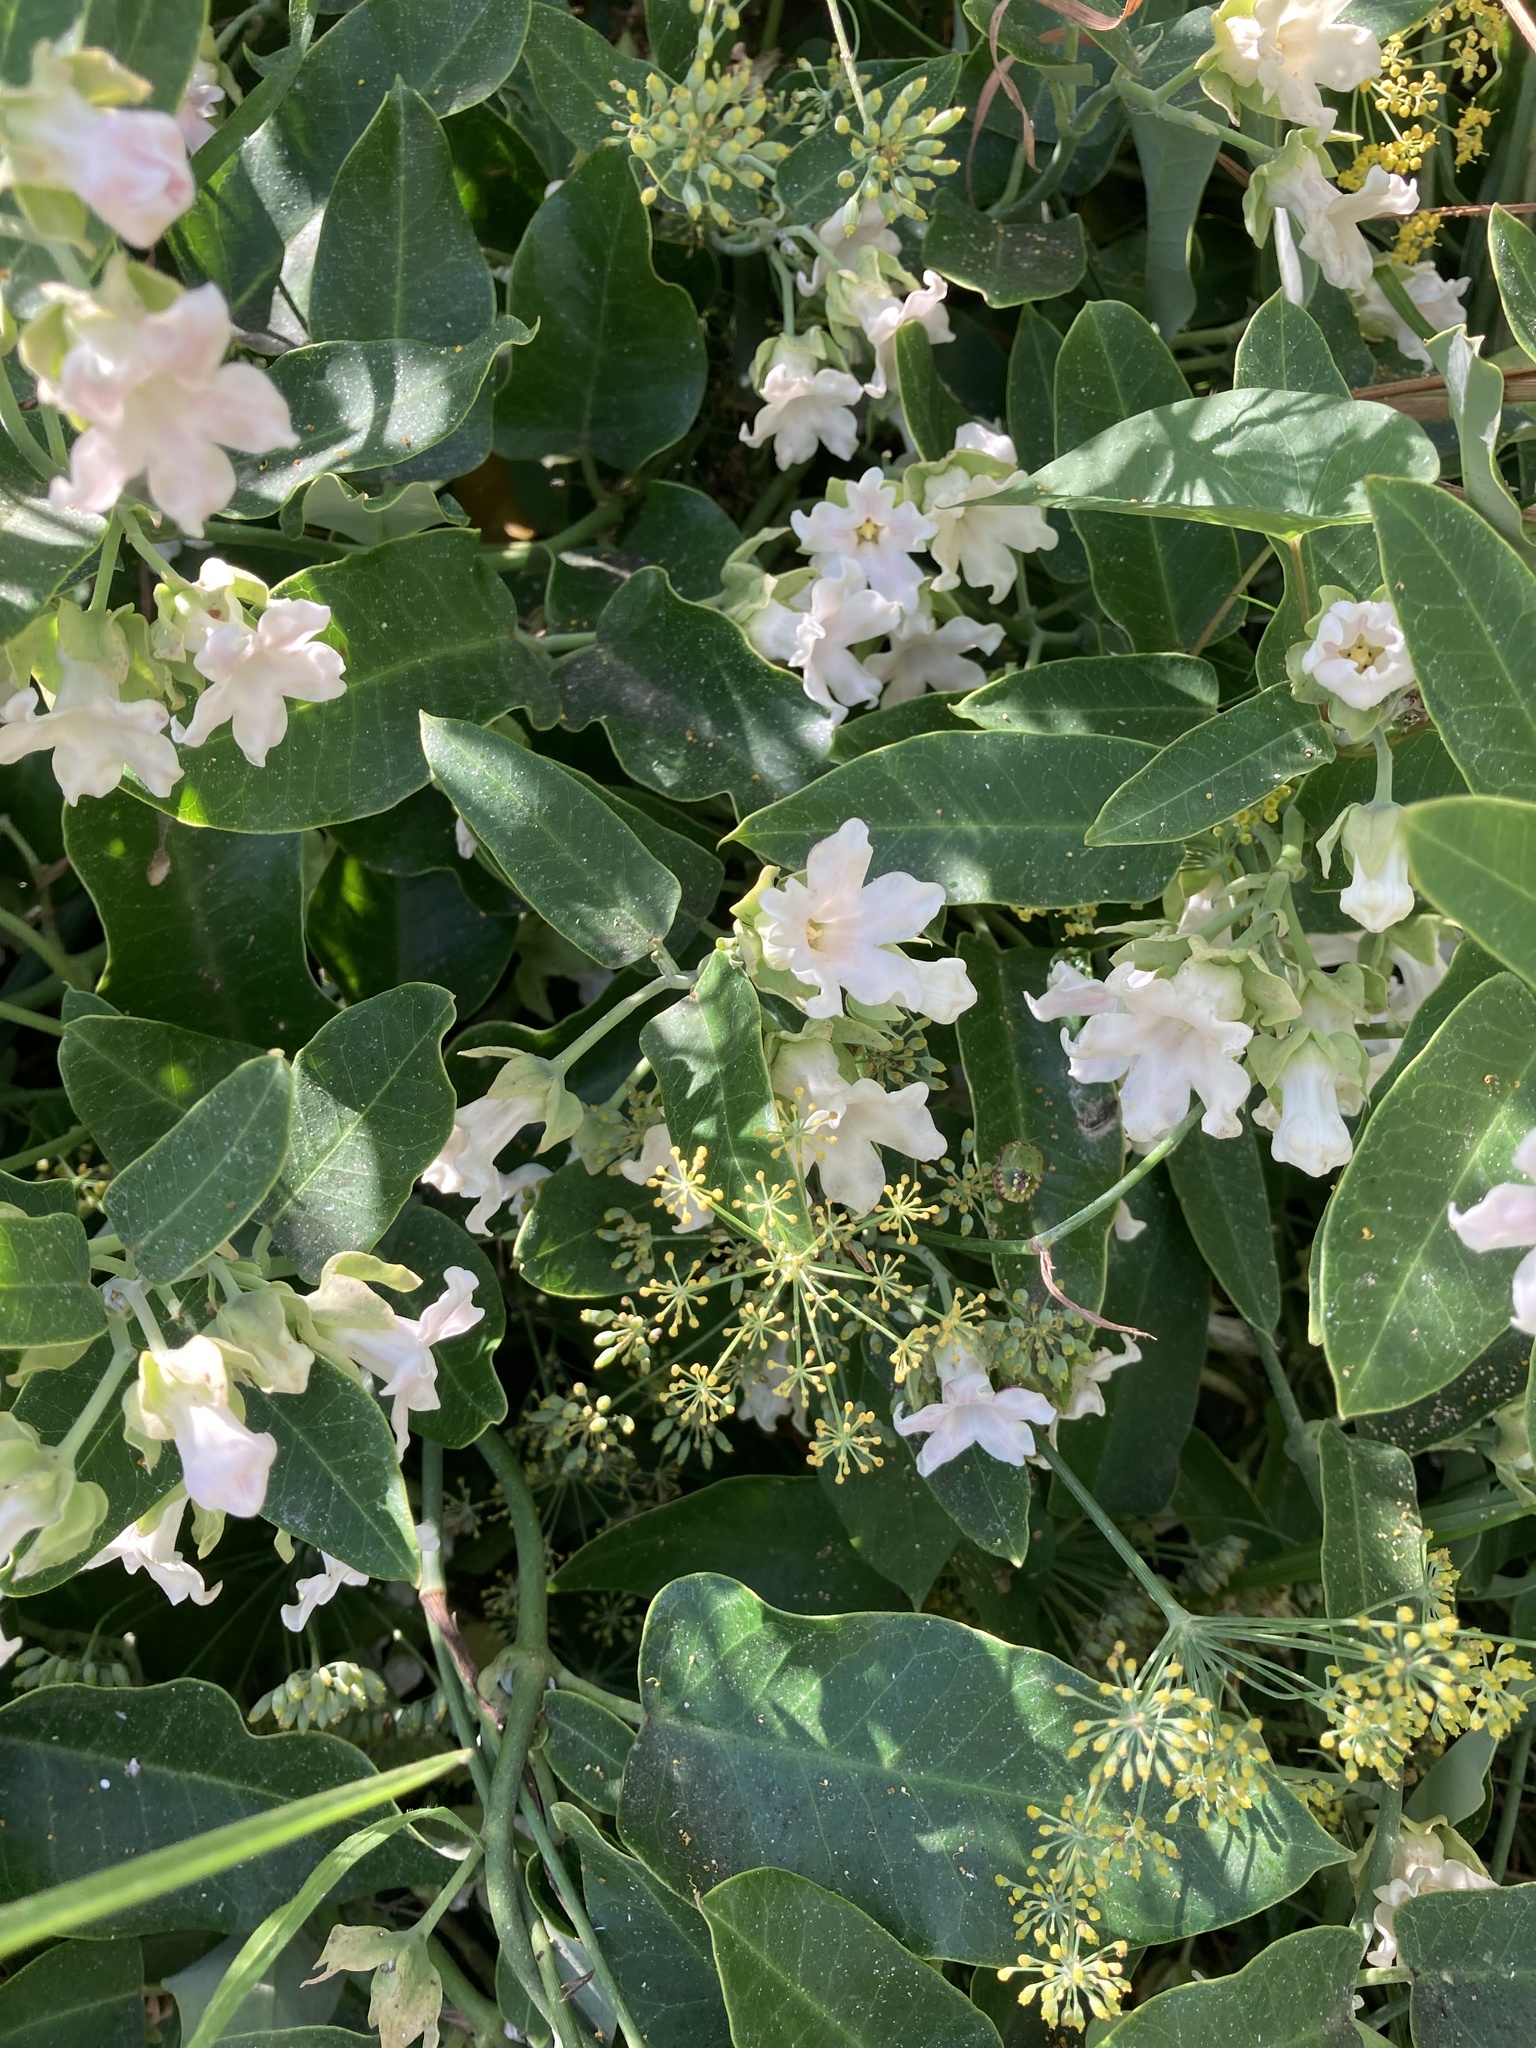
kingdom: Plantae
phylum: Tracheophyta
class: Magnoliopsida
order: Gentianales
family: Apocynaceae
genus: Araujia
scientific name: Araujia sericifera
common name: White bladderflower
